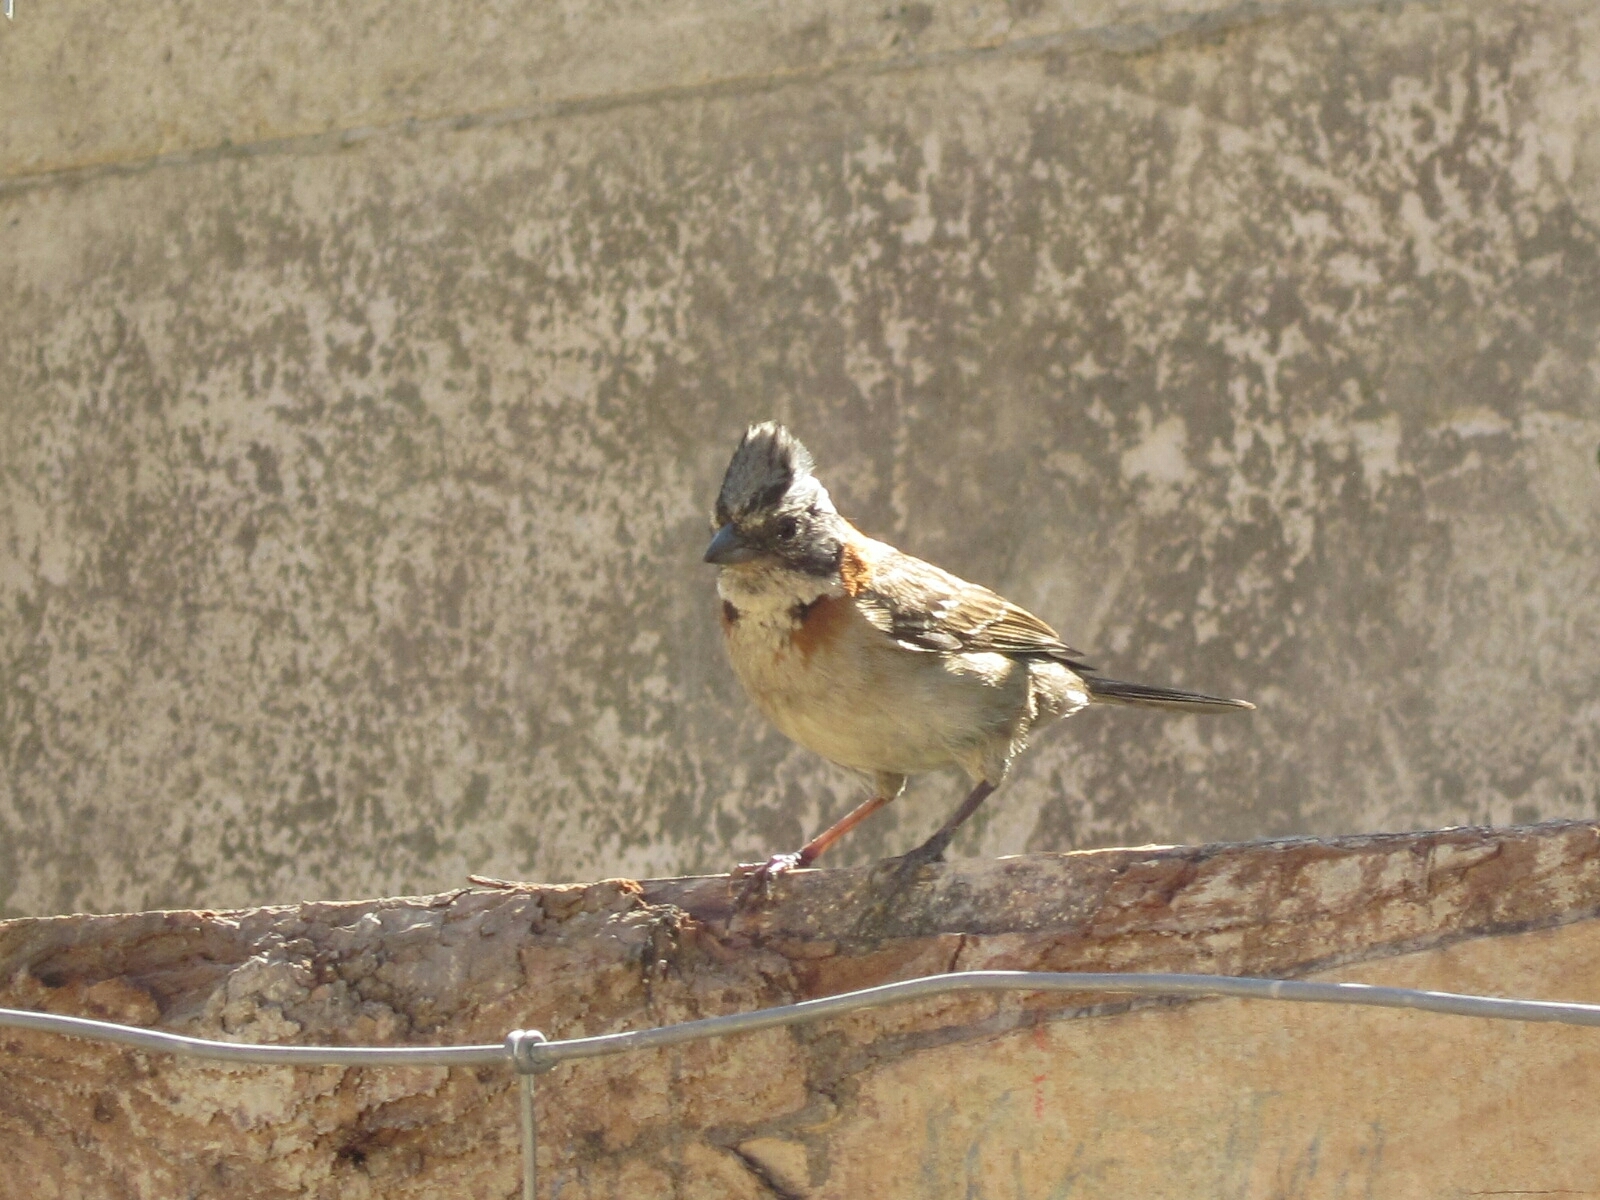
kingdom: Animalia
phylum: Chordata
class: Aves
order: Passeriformes
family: Passerellidae
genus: Zonotrichia
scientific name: Zonotrichia capensis
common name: Rufous-collared sparrow
